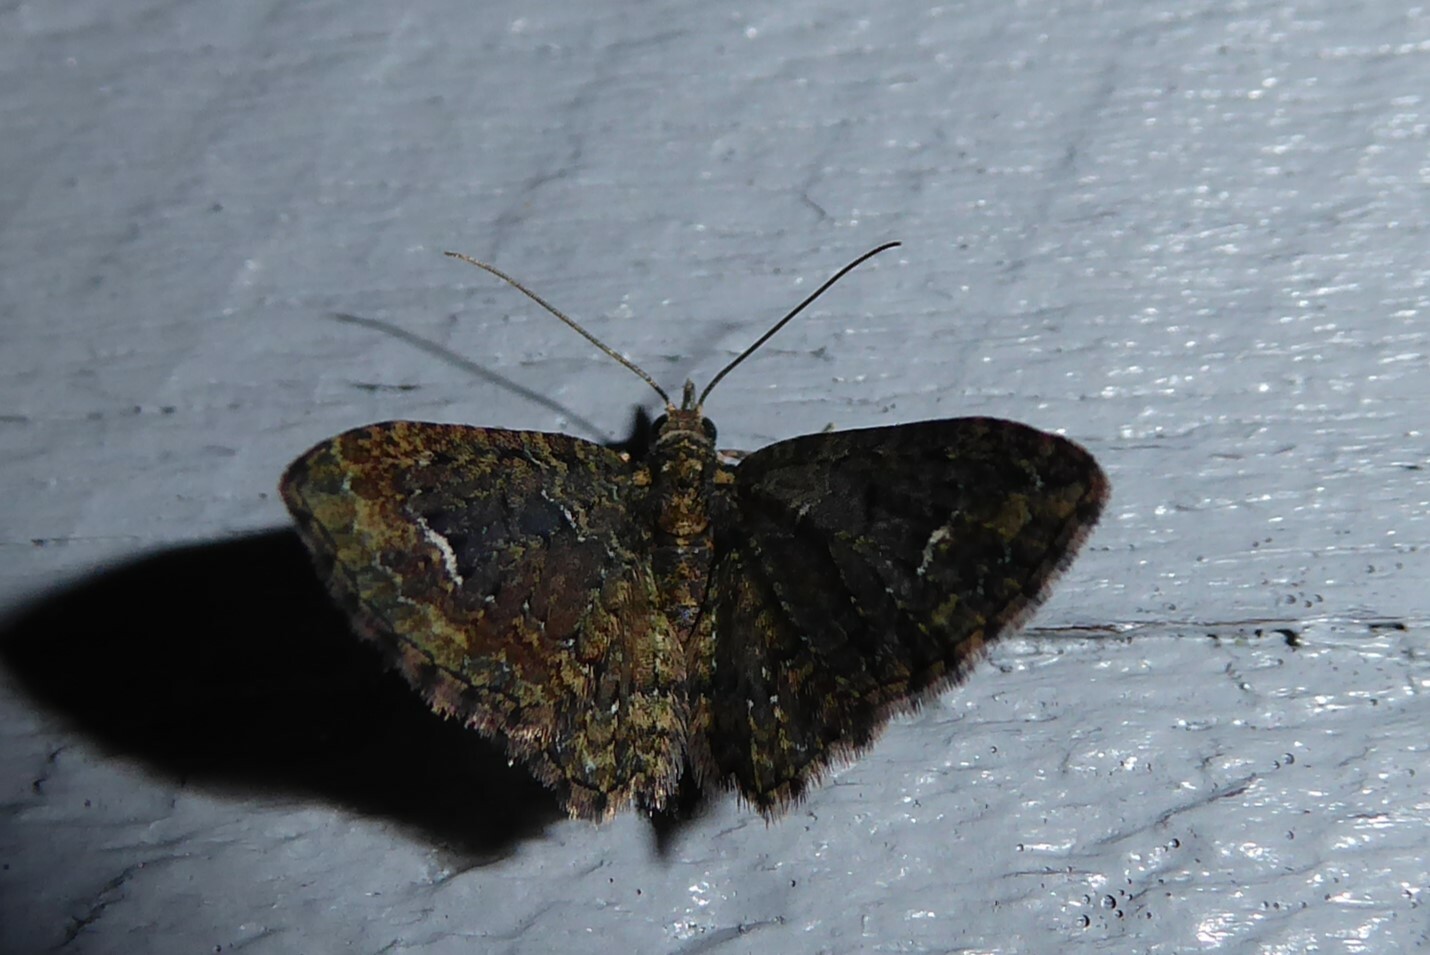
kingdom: Animalia
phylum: Arthropoda
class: Insecta
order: Lepidoptera
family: Geometridae
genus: Pasiphilodes
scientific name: Pasiphilodes testulata
